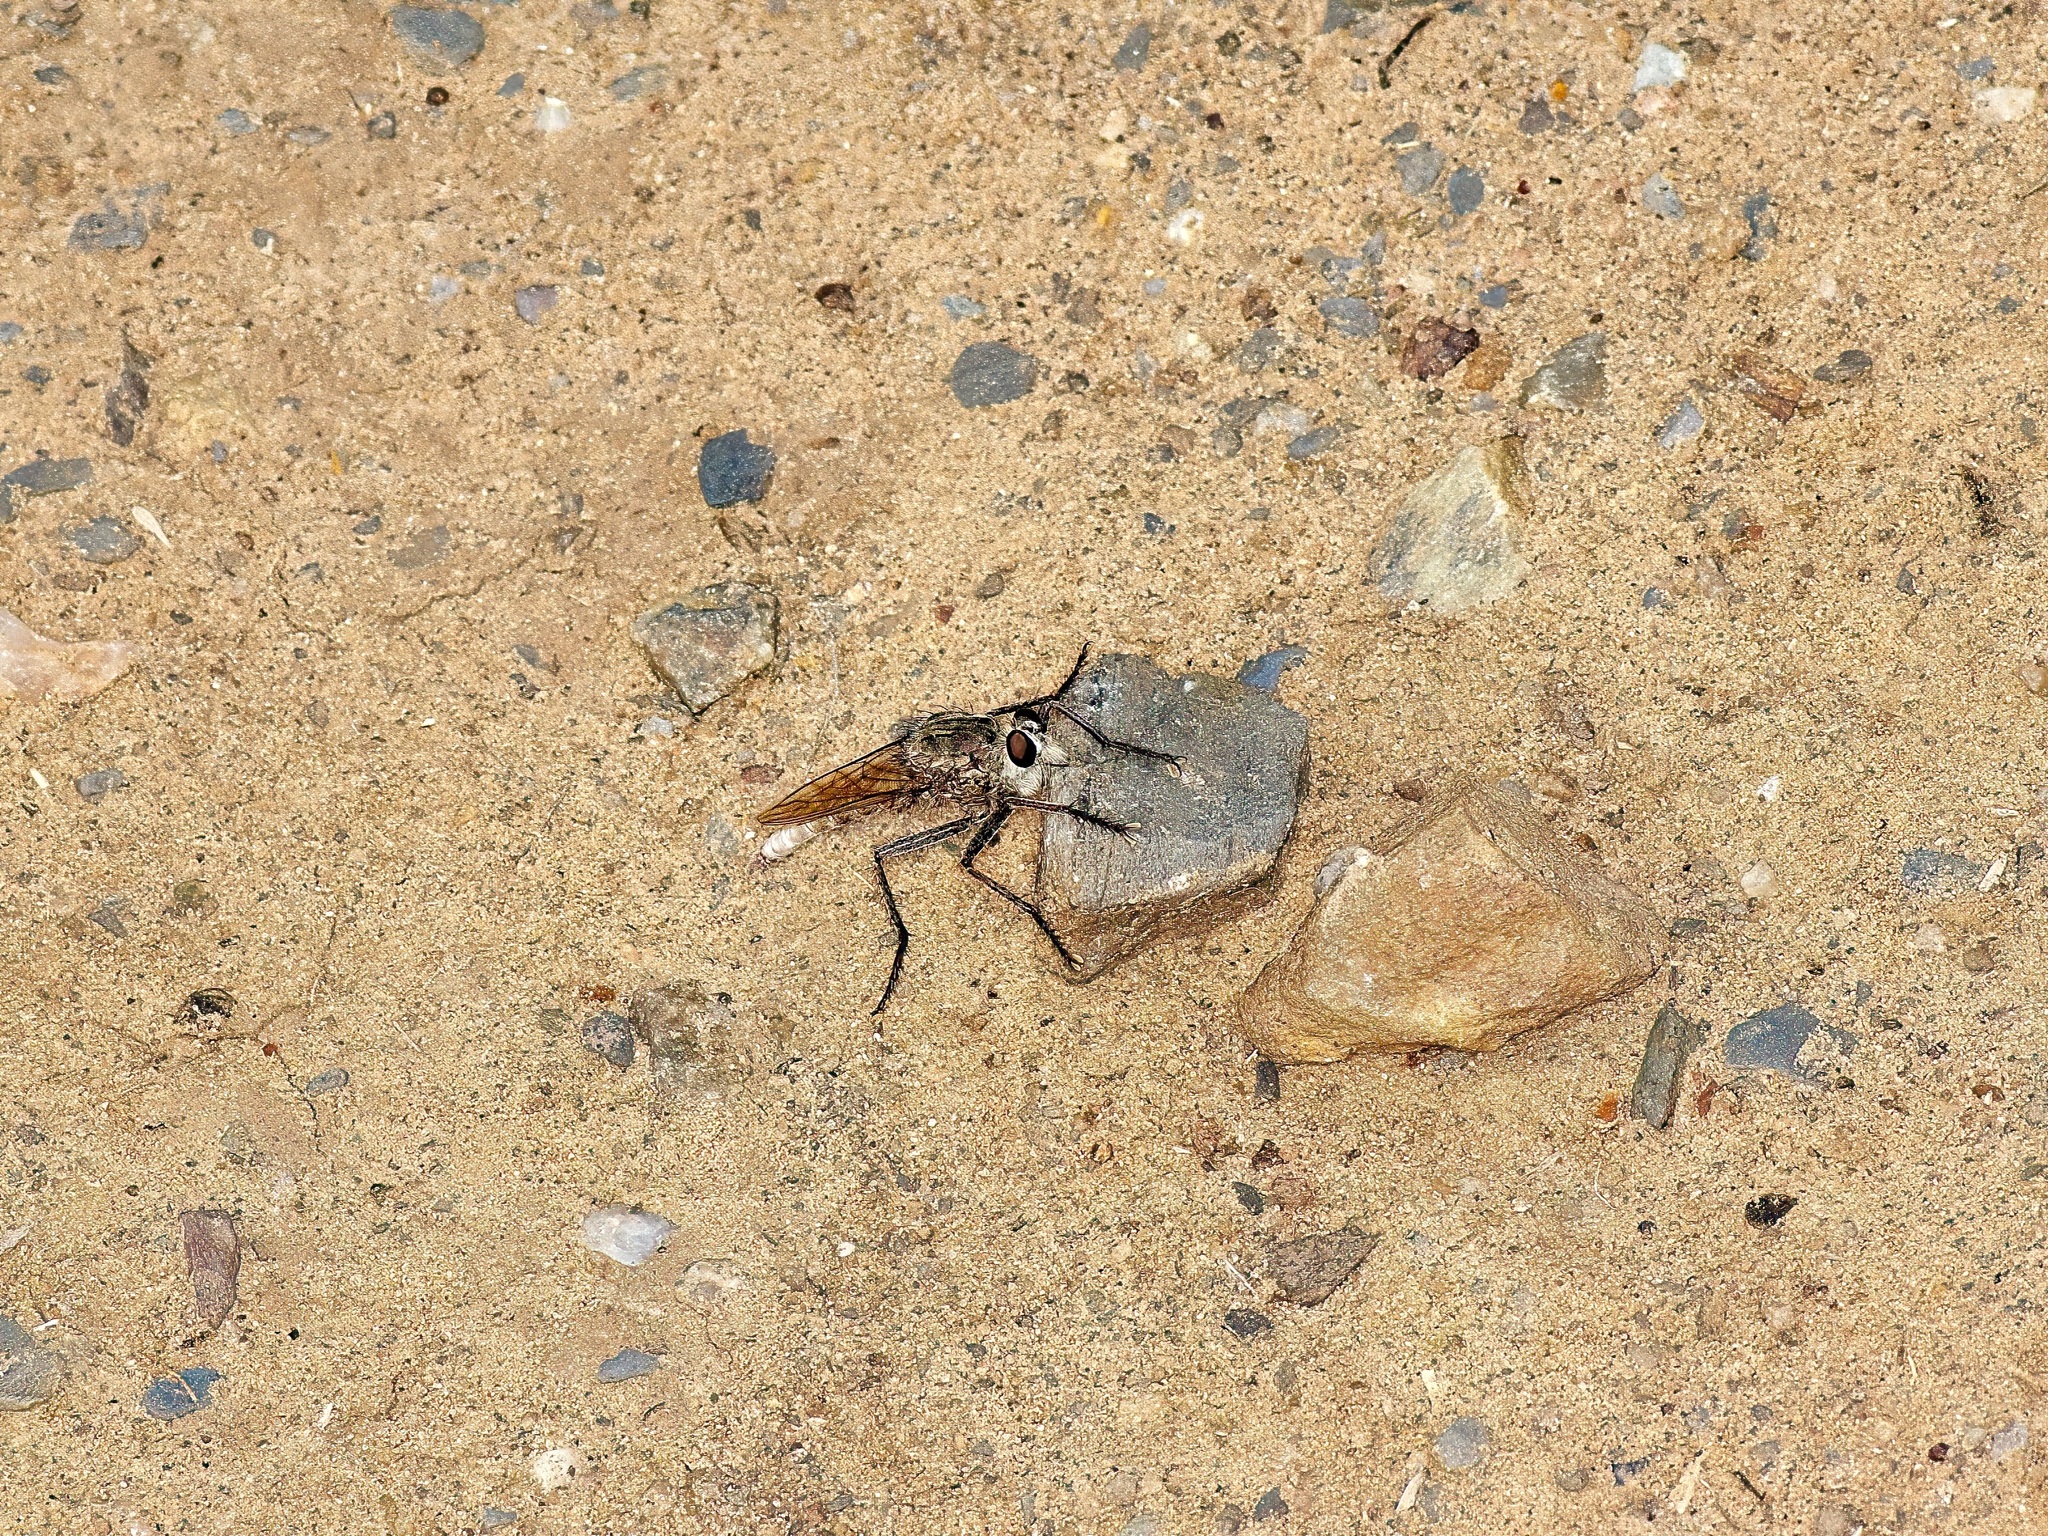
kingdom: Animalia
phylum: Arthropoda
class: Insecta
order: Diptera
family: Asilidae
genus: Proctacanthus
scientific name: Proctacanthus
